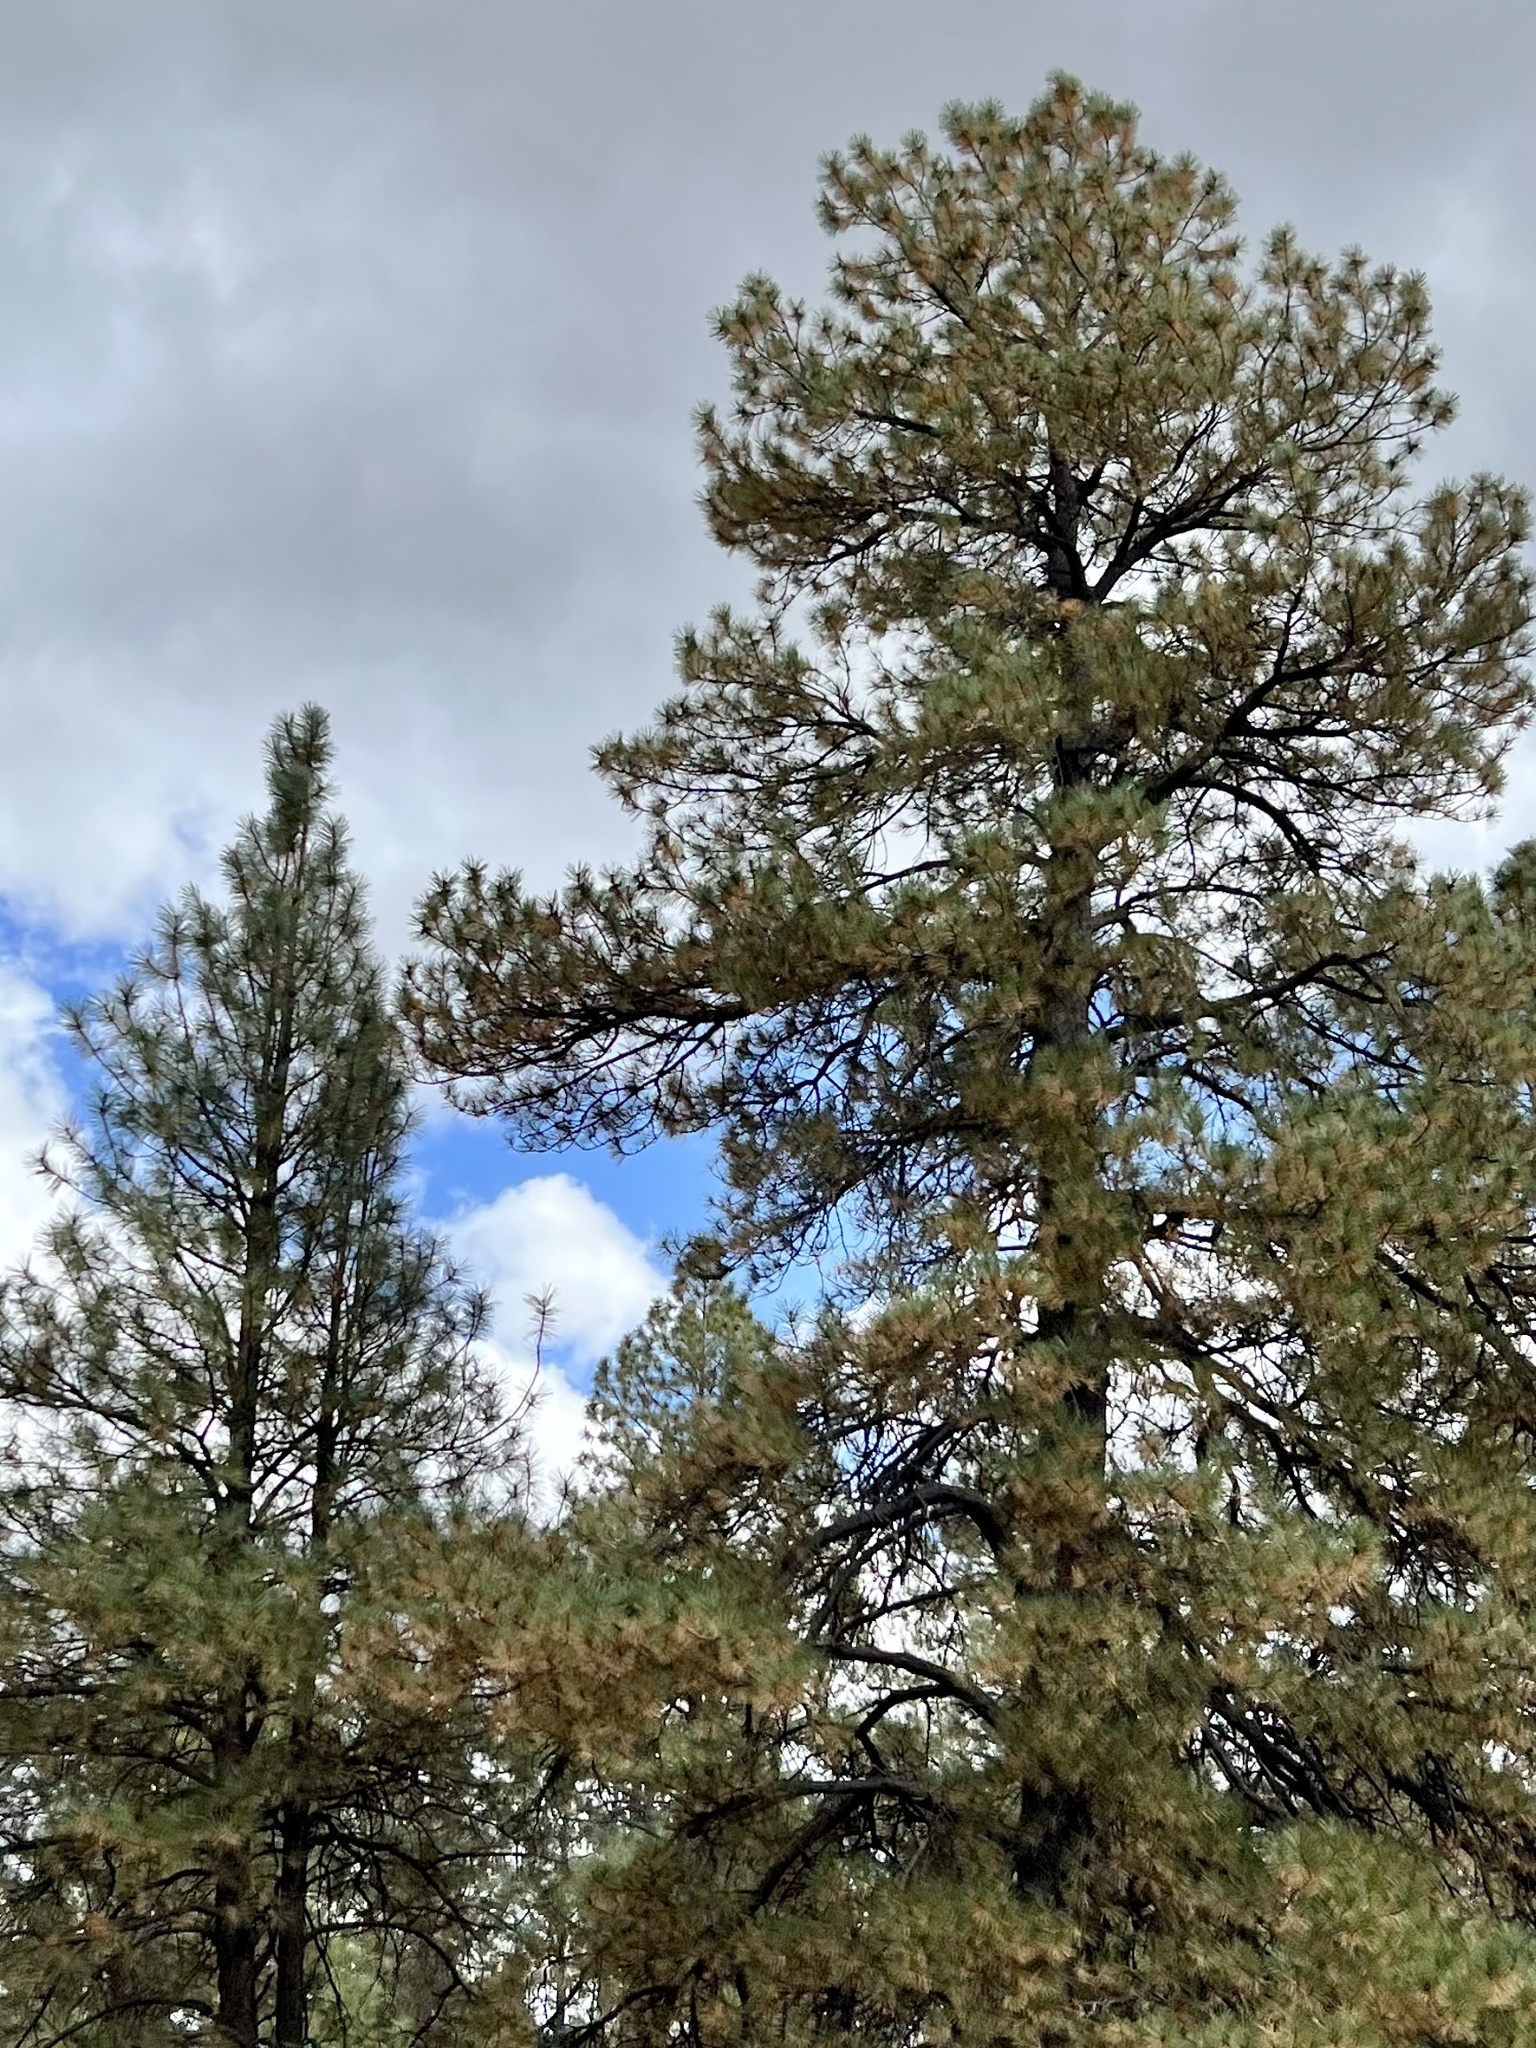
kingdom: Plantae
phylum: Tracheophyta
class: Pinopsida
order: Pinales
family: Pinaceae
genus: Pinus
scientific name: Pinus ponderosa
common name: Western yellow-pine
